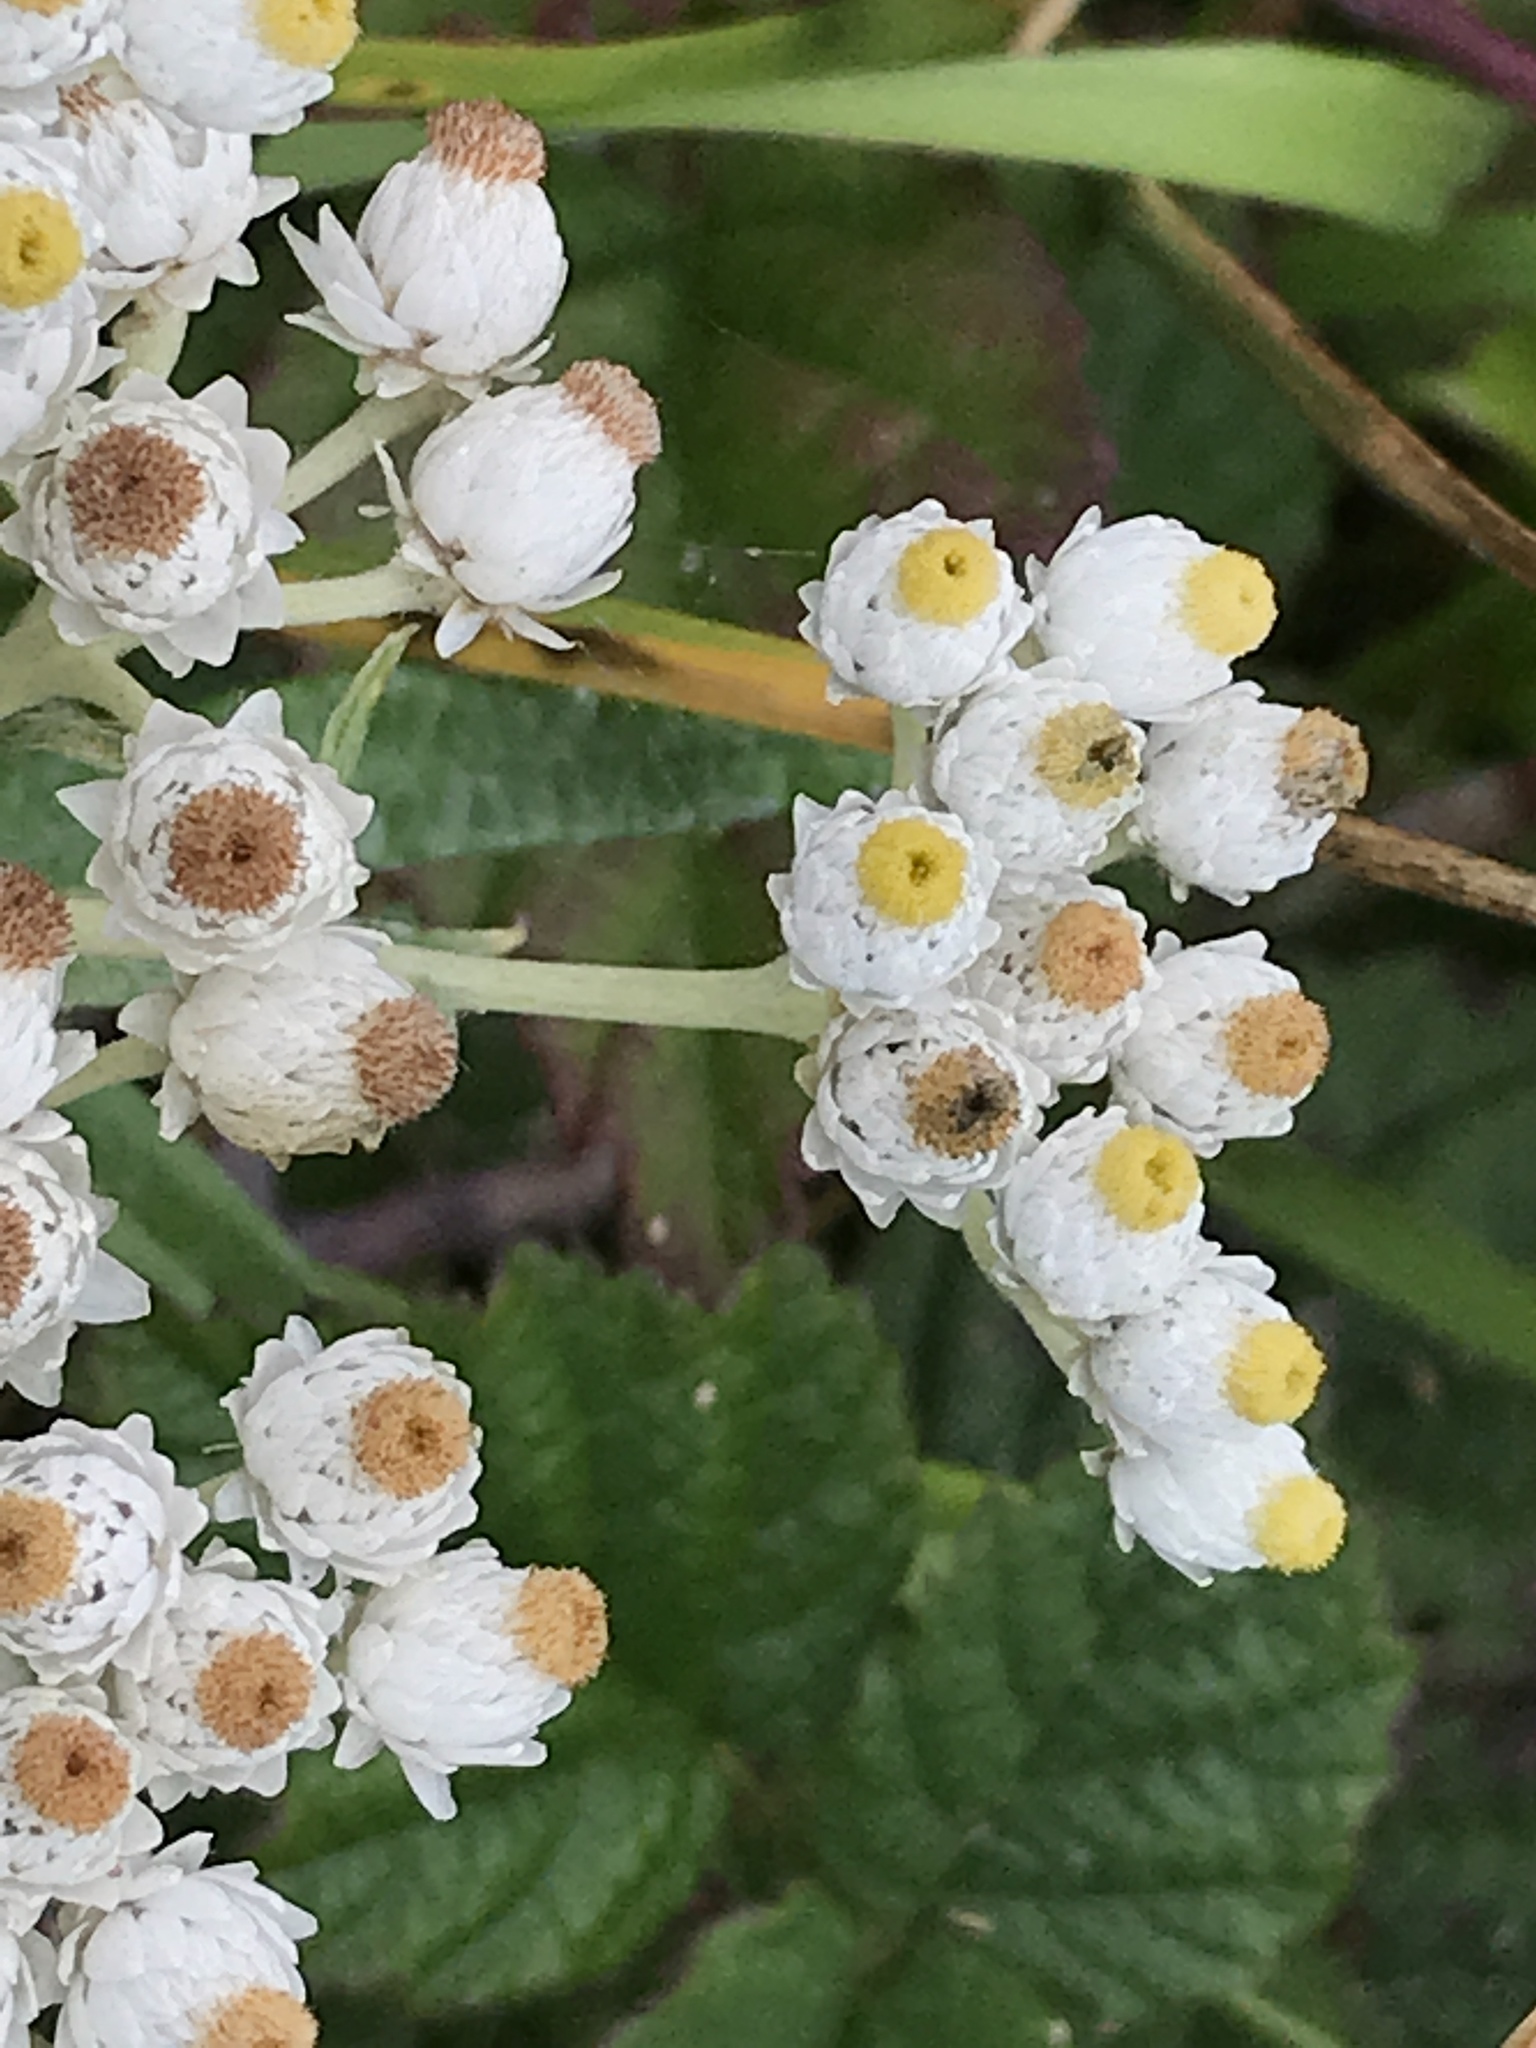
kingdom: Plantae
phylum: Tracheophyta
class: Magnoliopsida
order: Asterales
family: Asteraceae
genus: Anaphalis
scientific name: Anaphalis margaritacea
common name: Pearly everlasting
